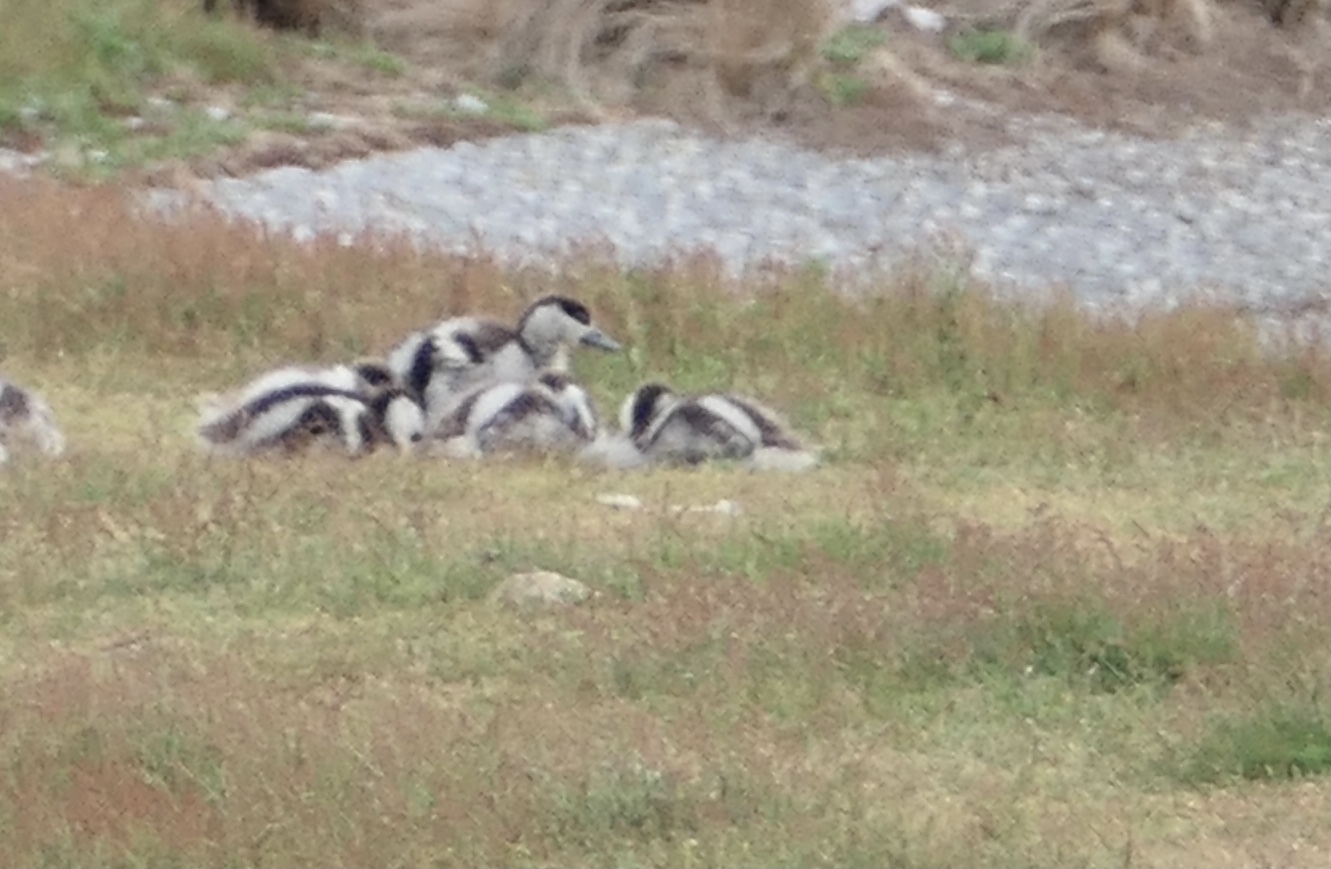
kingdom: Animalia
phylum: Chordata
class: Aves
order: Anseriformes
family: Anatidae
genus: Tadorna
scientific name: Tadorna variegata
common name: Paradise shelduck
